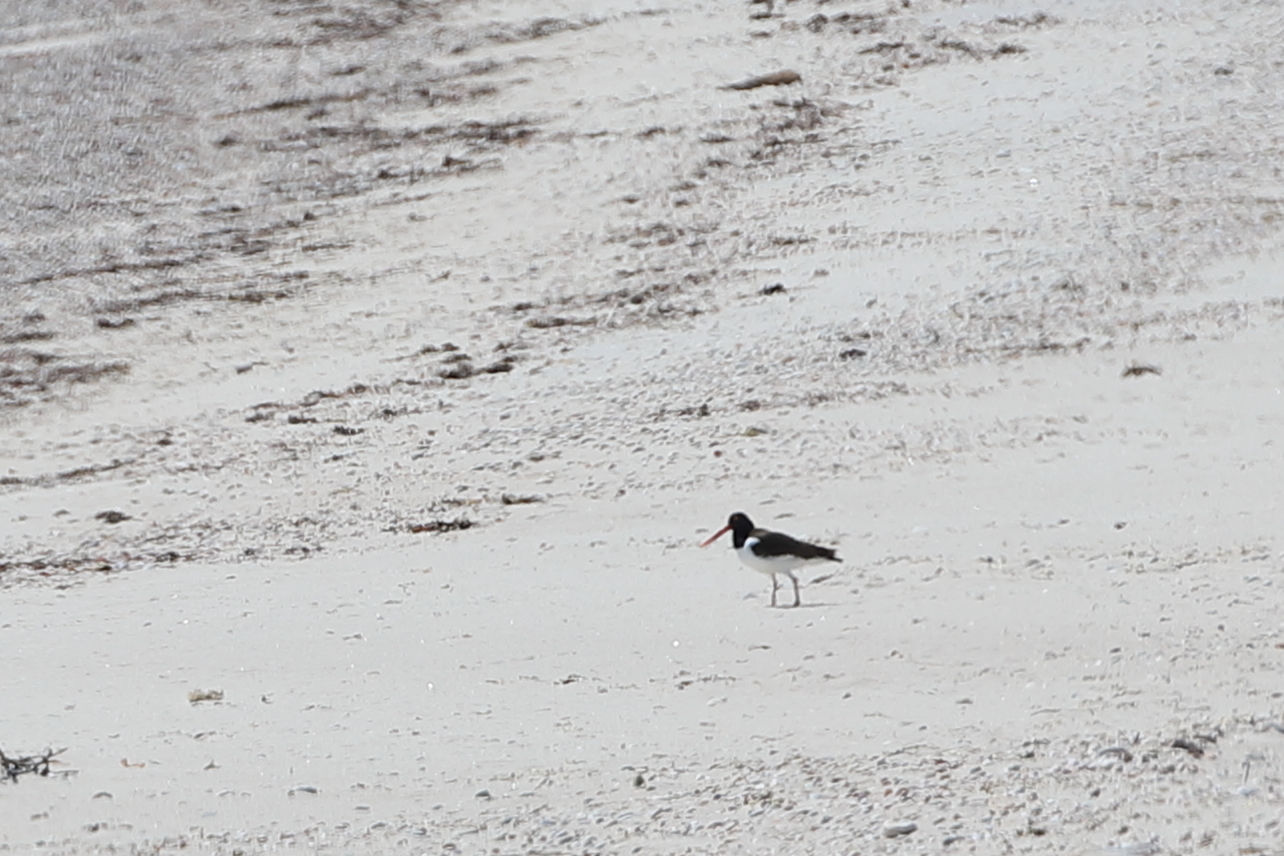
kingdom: Animalia
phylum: Chordata
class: Aves
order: Charadriiformes
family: Haematopodidae
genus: Haematopus
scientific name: Haematopus palliatus
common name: American oystercatcher
